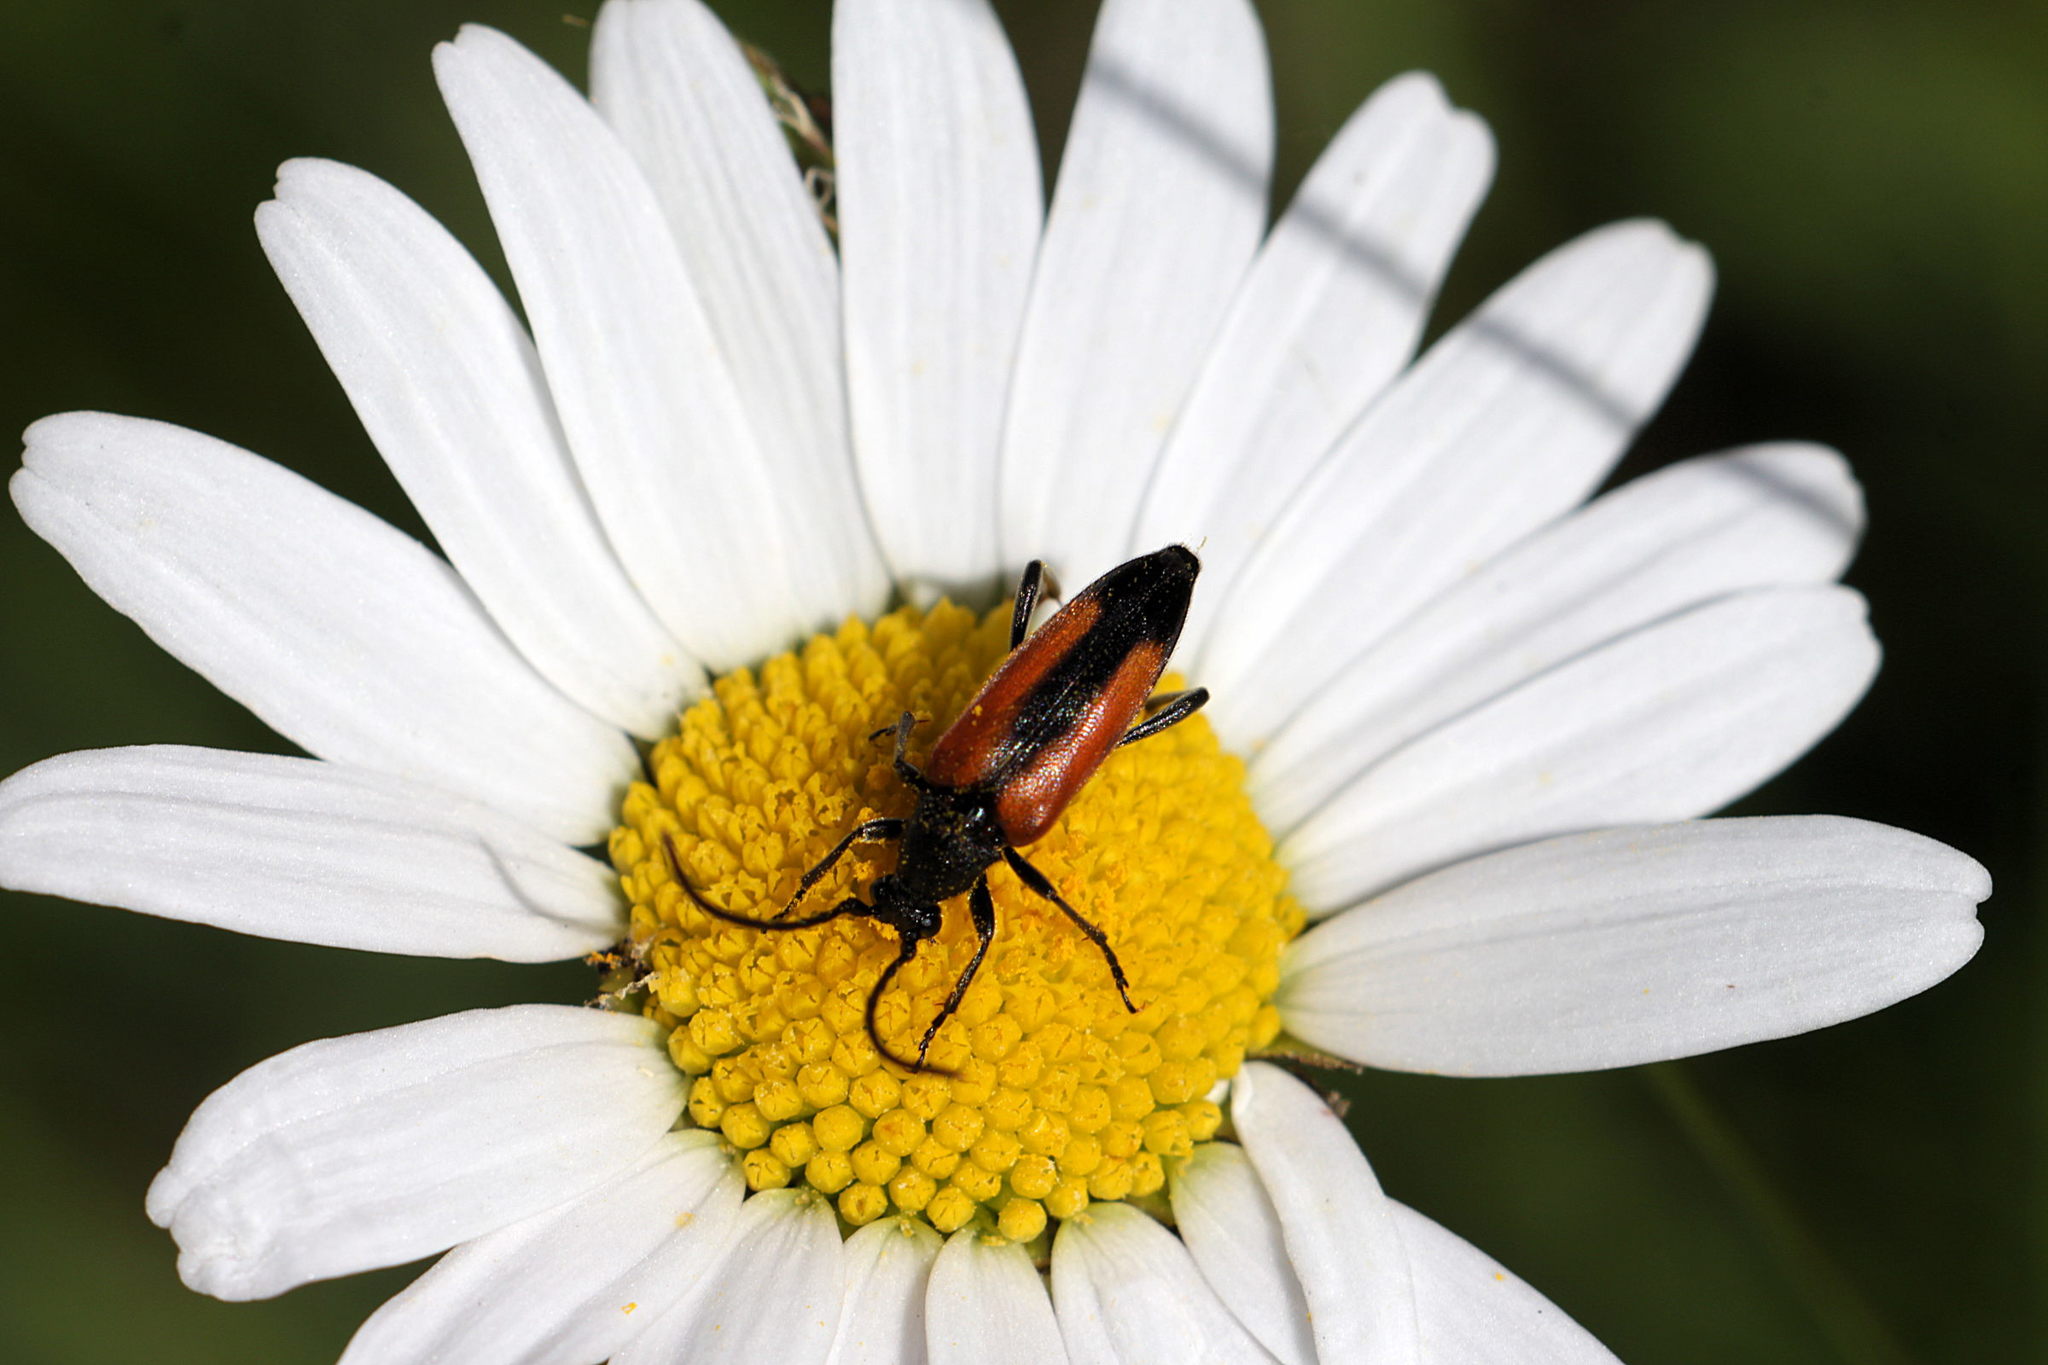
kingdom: Animalia
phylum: Arthropoda
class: Insecta
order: Coleoptera
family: Cerambycidae
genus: Stenurella
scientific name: Stenurella melanura
